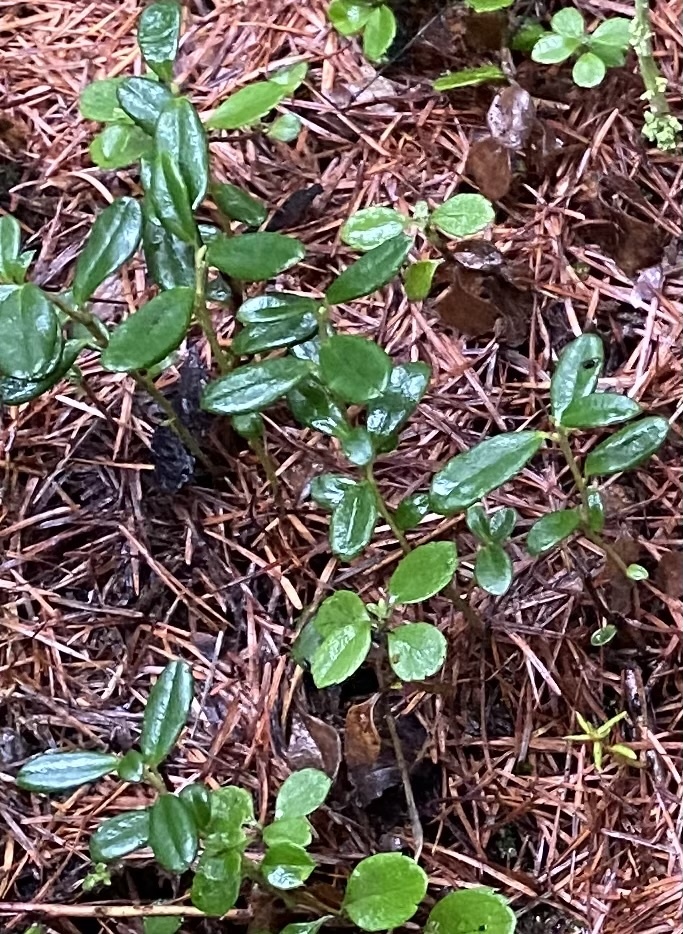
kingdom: Plantae
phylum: Tracheophyta
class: Magnoliopsida
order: Ericales
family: Ericaceae
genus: Vaccinium
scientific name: Vaccinium vitis-idaea
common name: Cowberry
